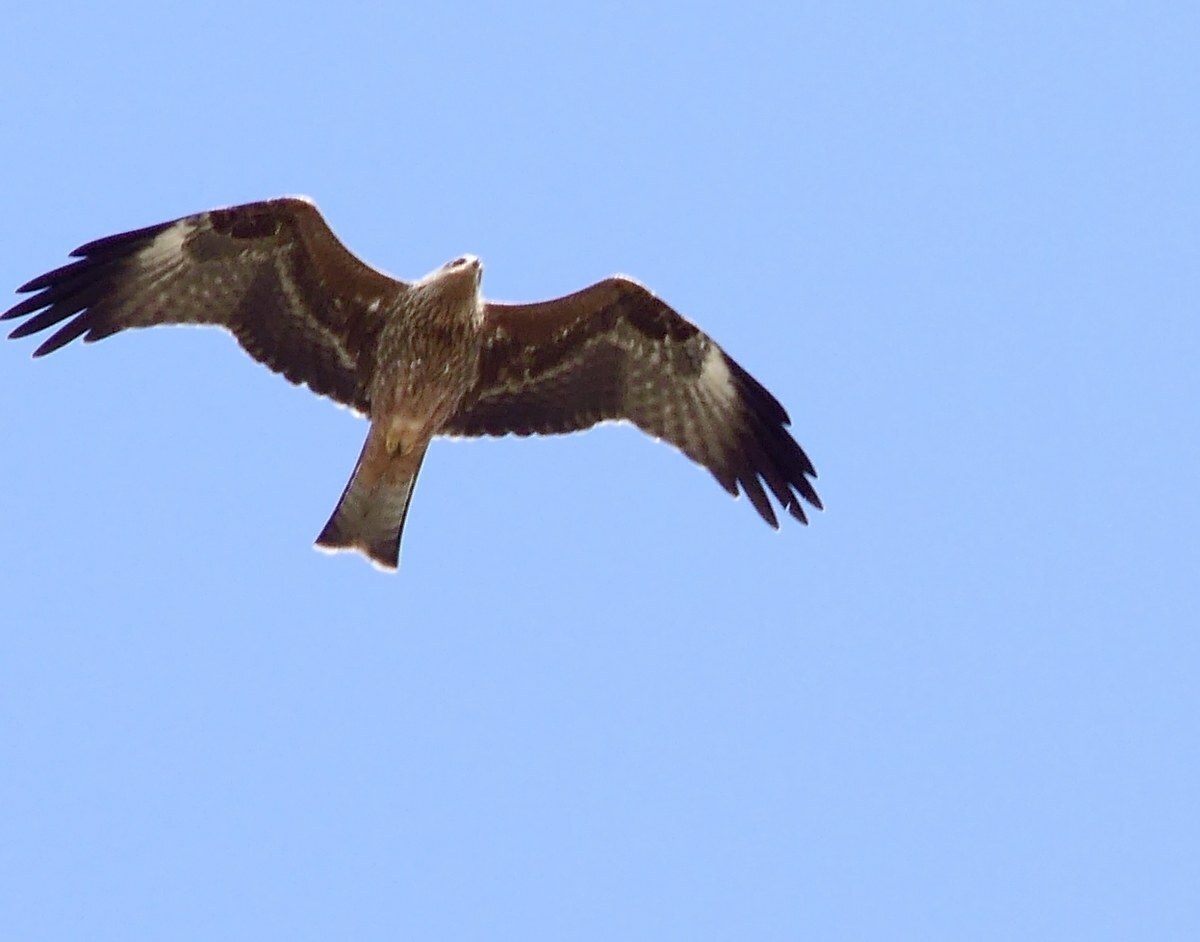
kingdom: Animalia
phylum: Chordata
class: Aves
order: Accipitriformes
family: Accipitridae
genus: Milvus
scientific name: Milvus migrans
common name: Black kite
